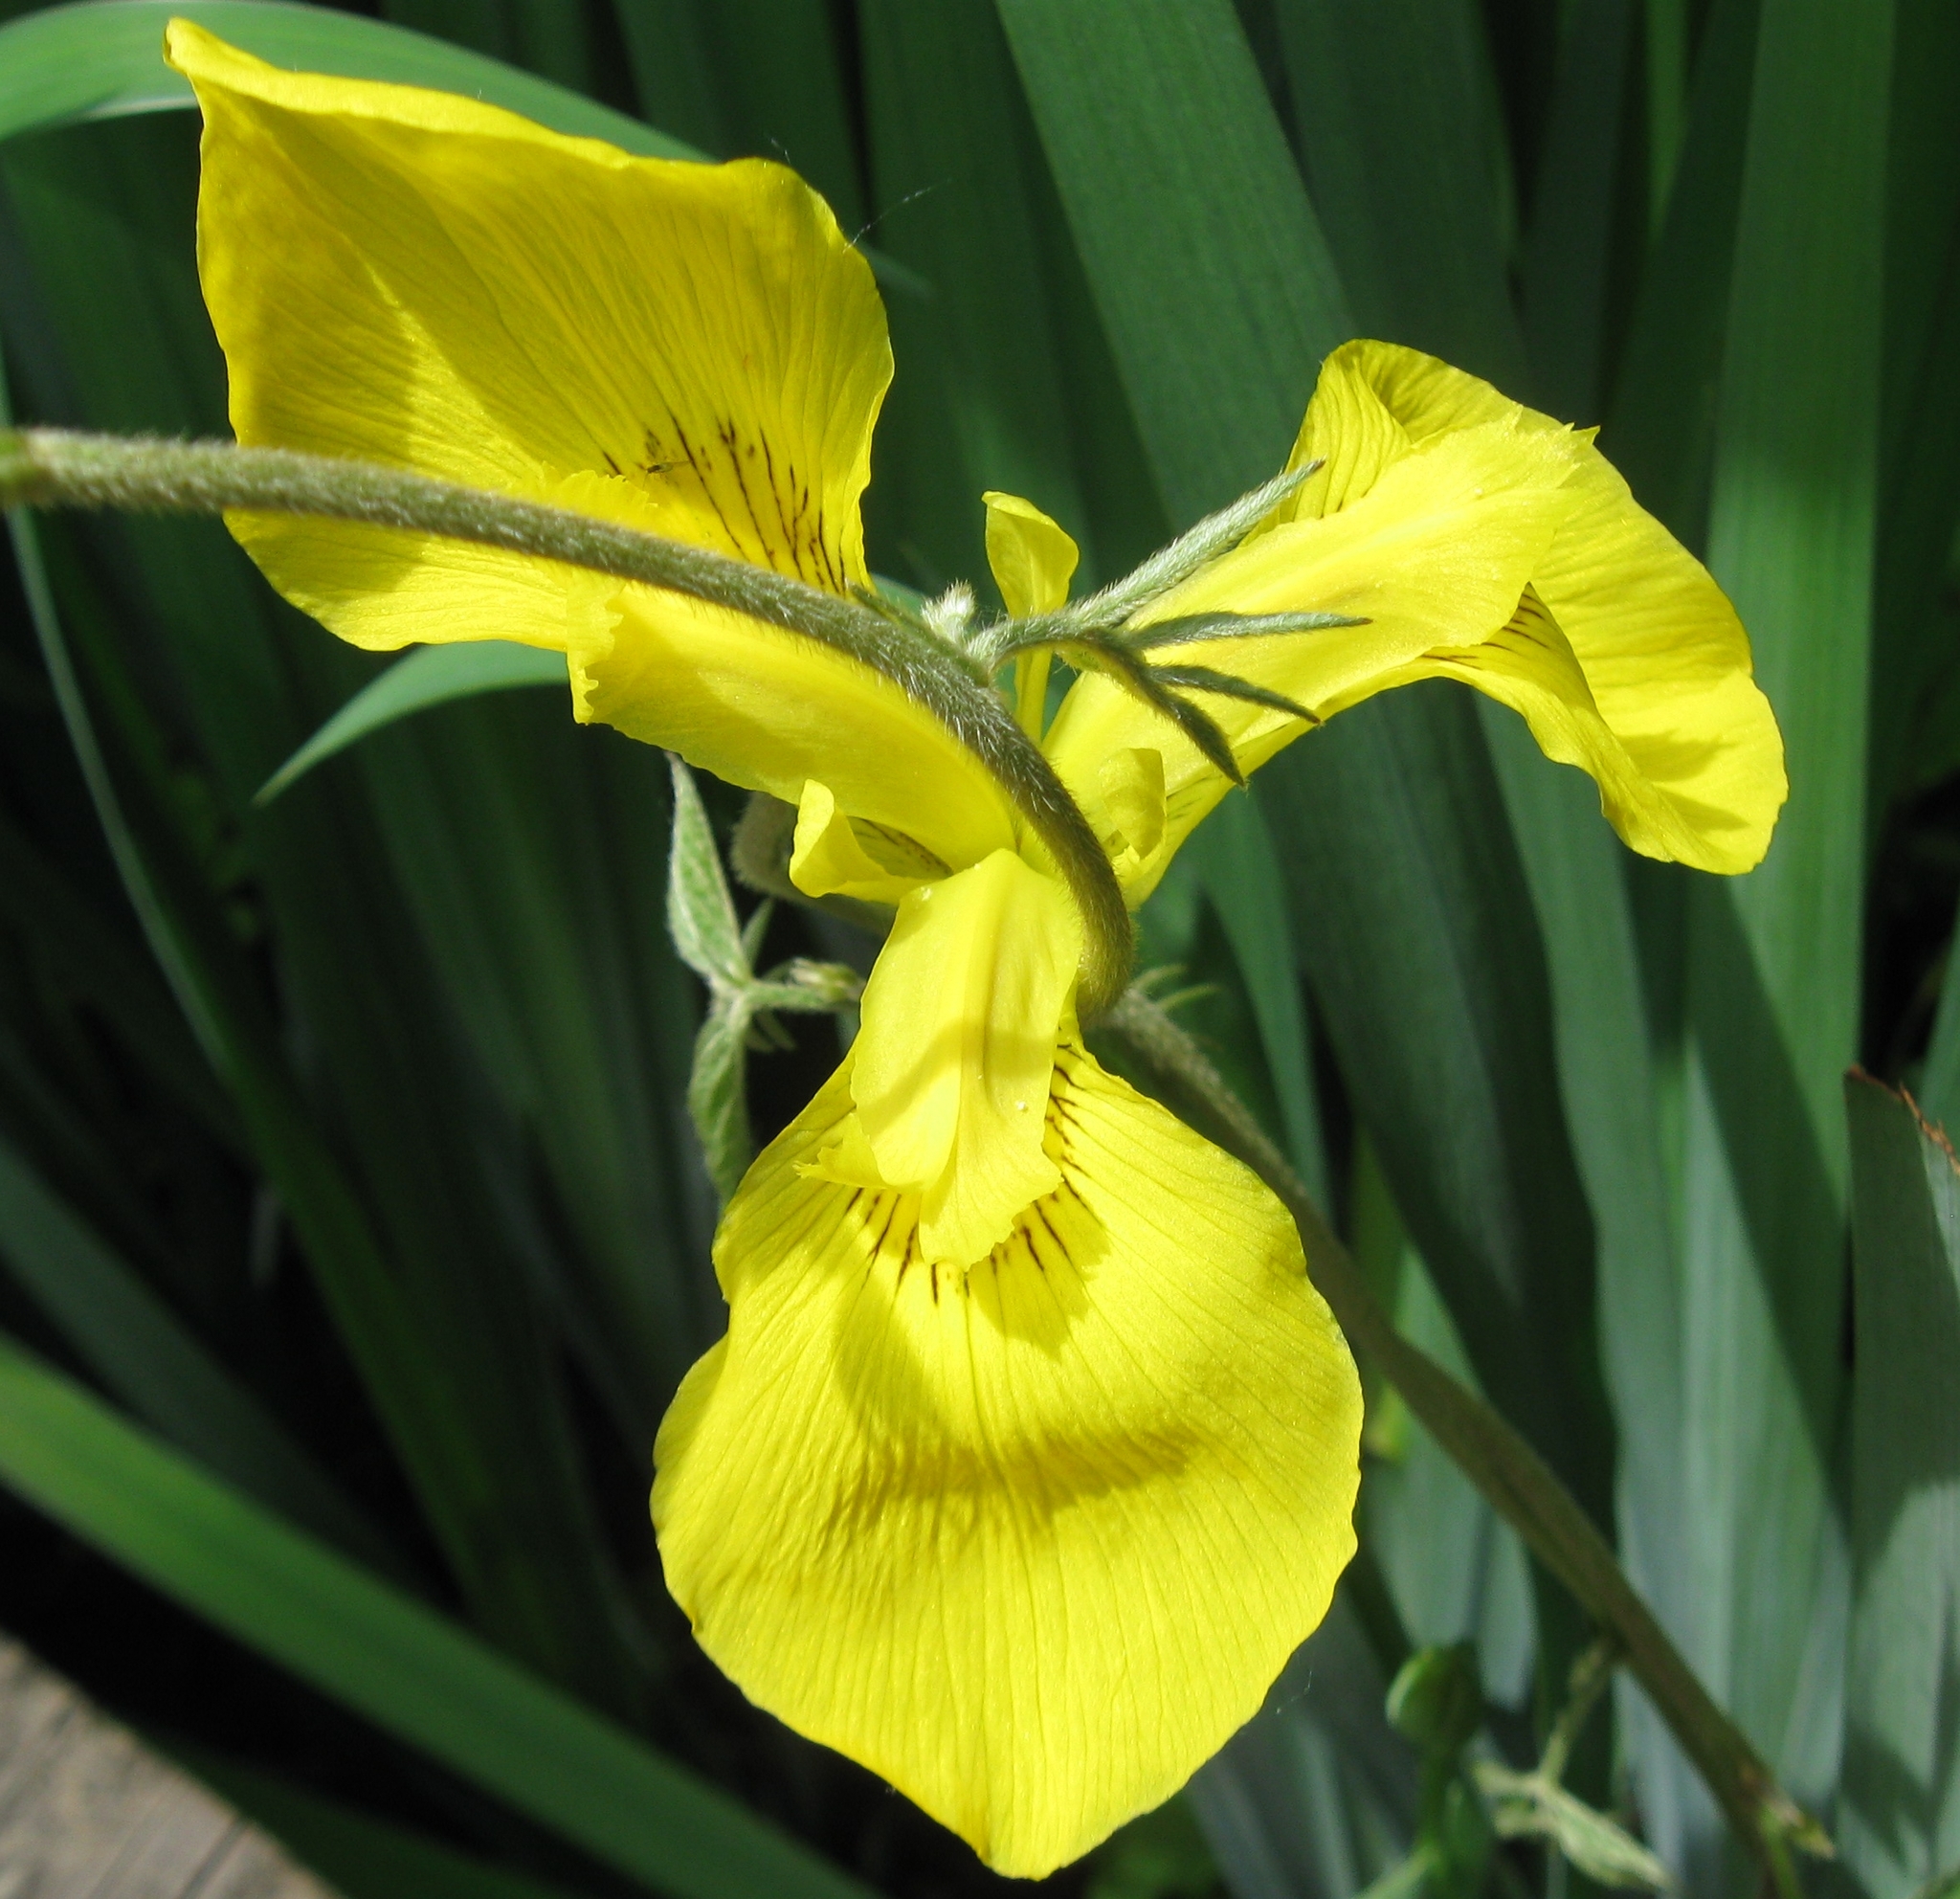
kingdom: Plantae
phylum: Tracheophyta
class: Liliopsida
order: Asparagales
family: Iridaceae
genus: Iris
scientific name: Iris pseudacorus
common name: Yellow flag
